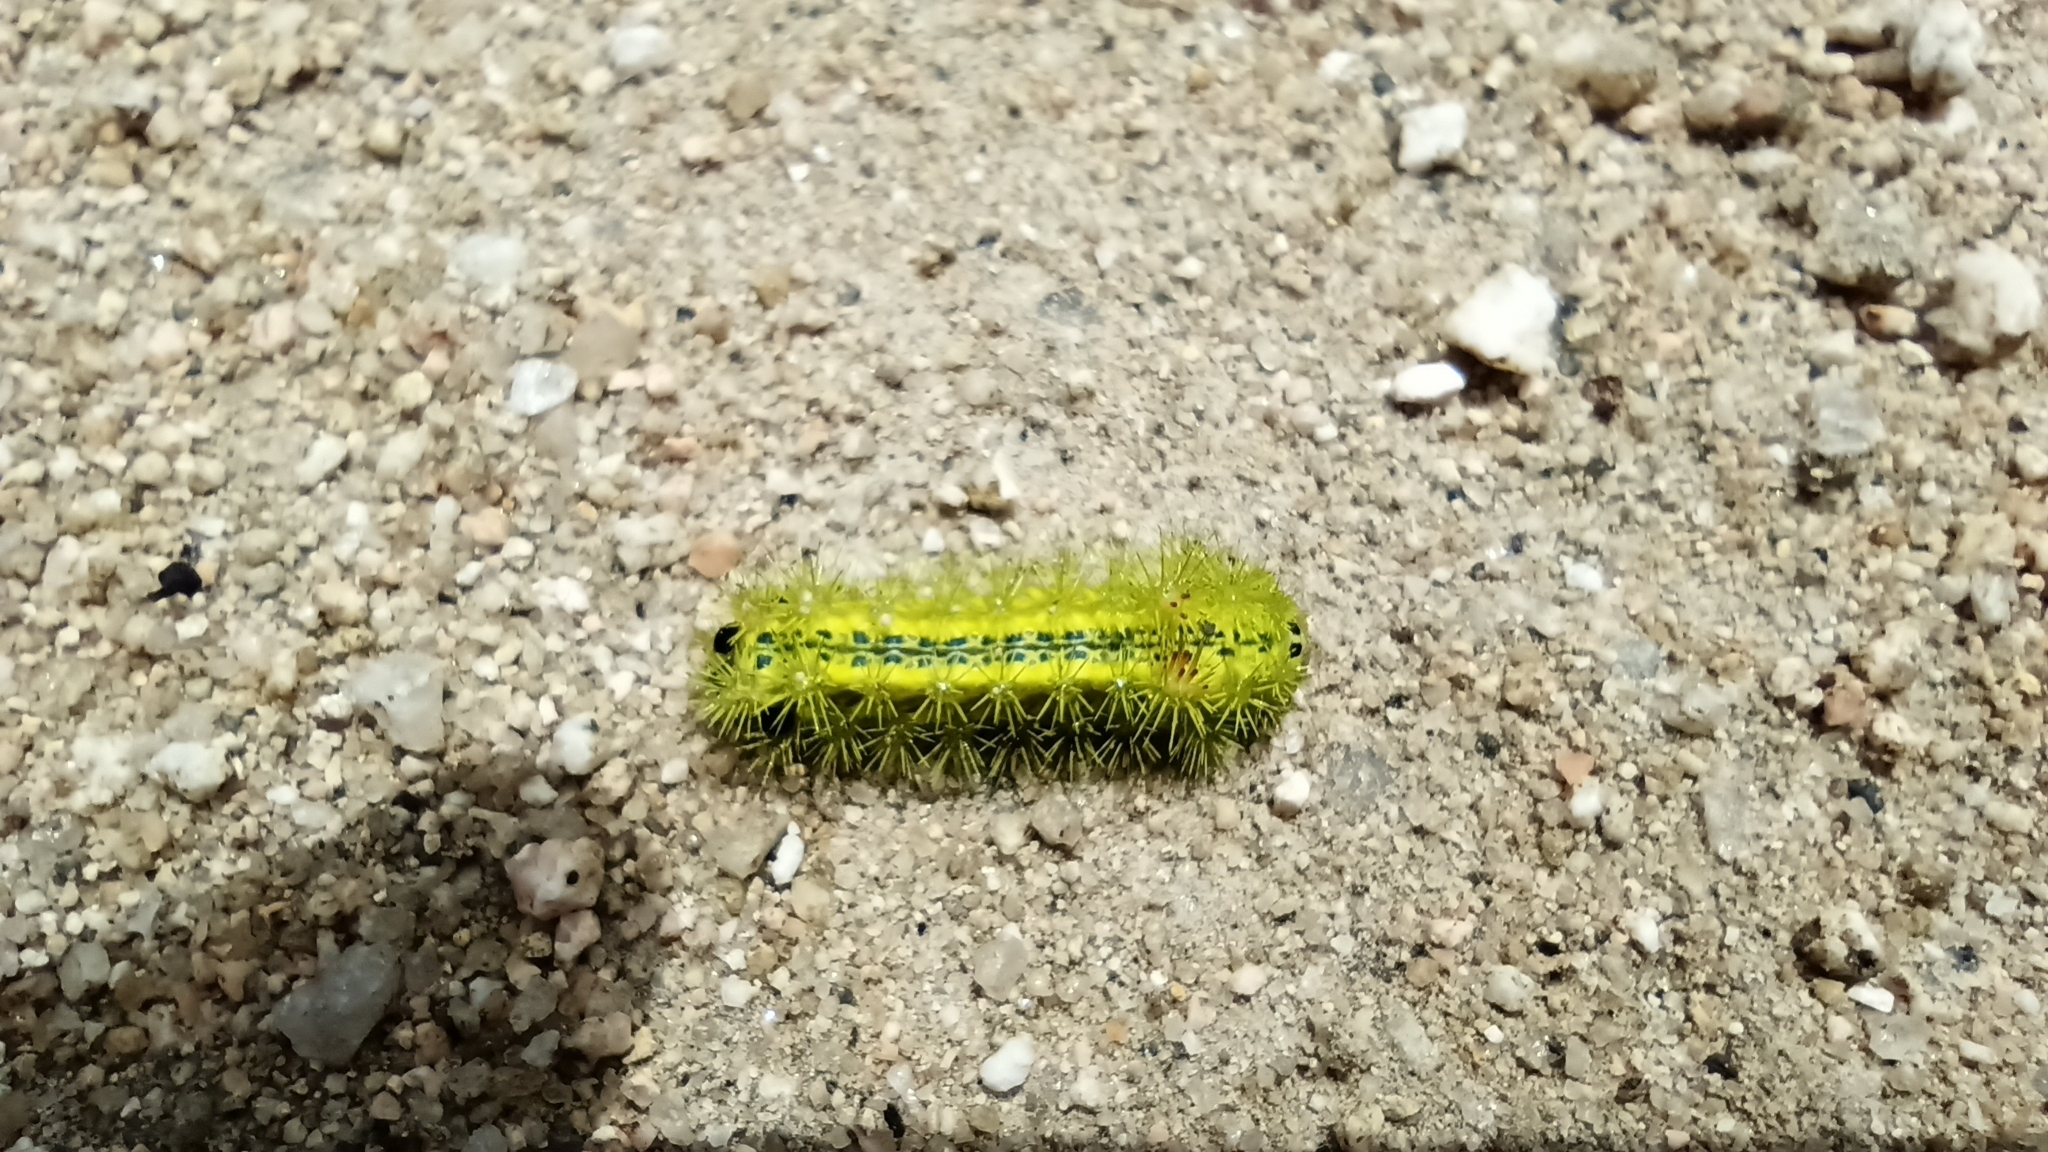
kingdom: Animalia
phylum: Arthropoda
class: Insecta
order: Lepidoptera
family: Limacodidae
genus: Parasa
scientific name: Parasa consocia
